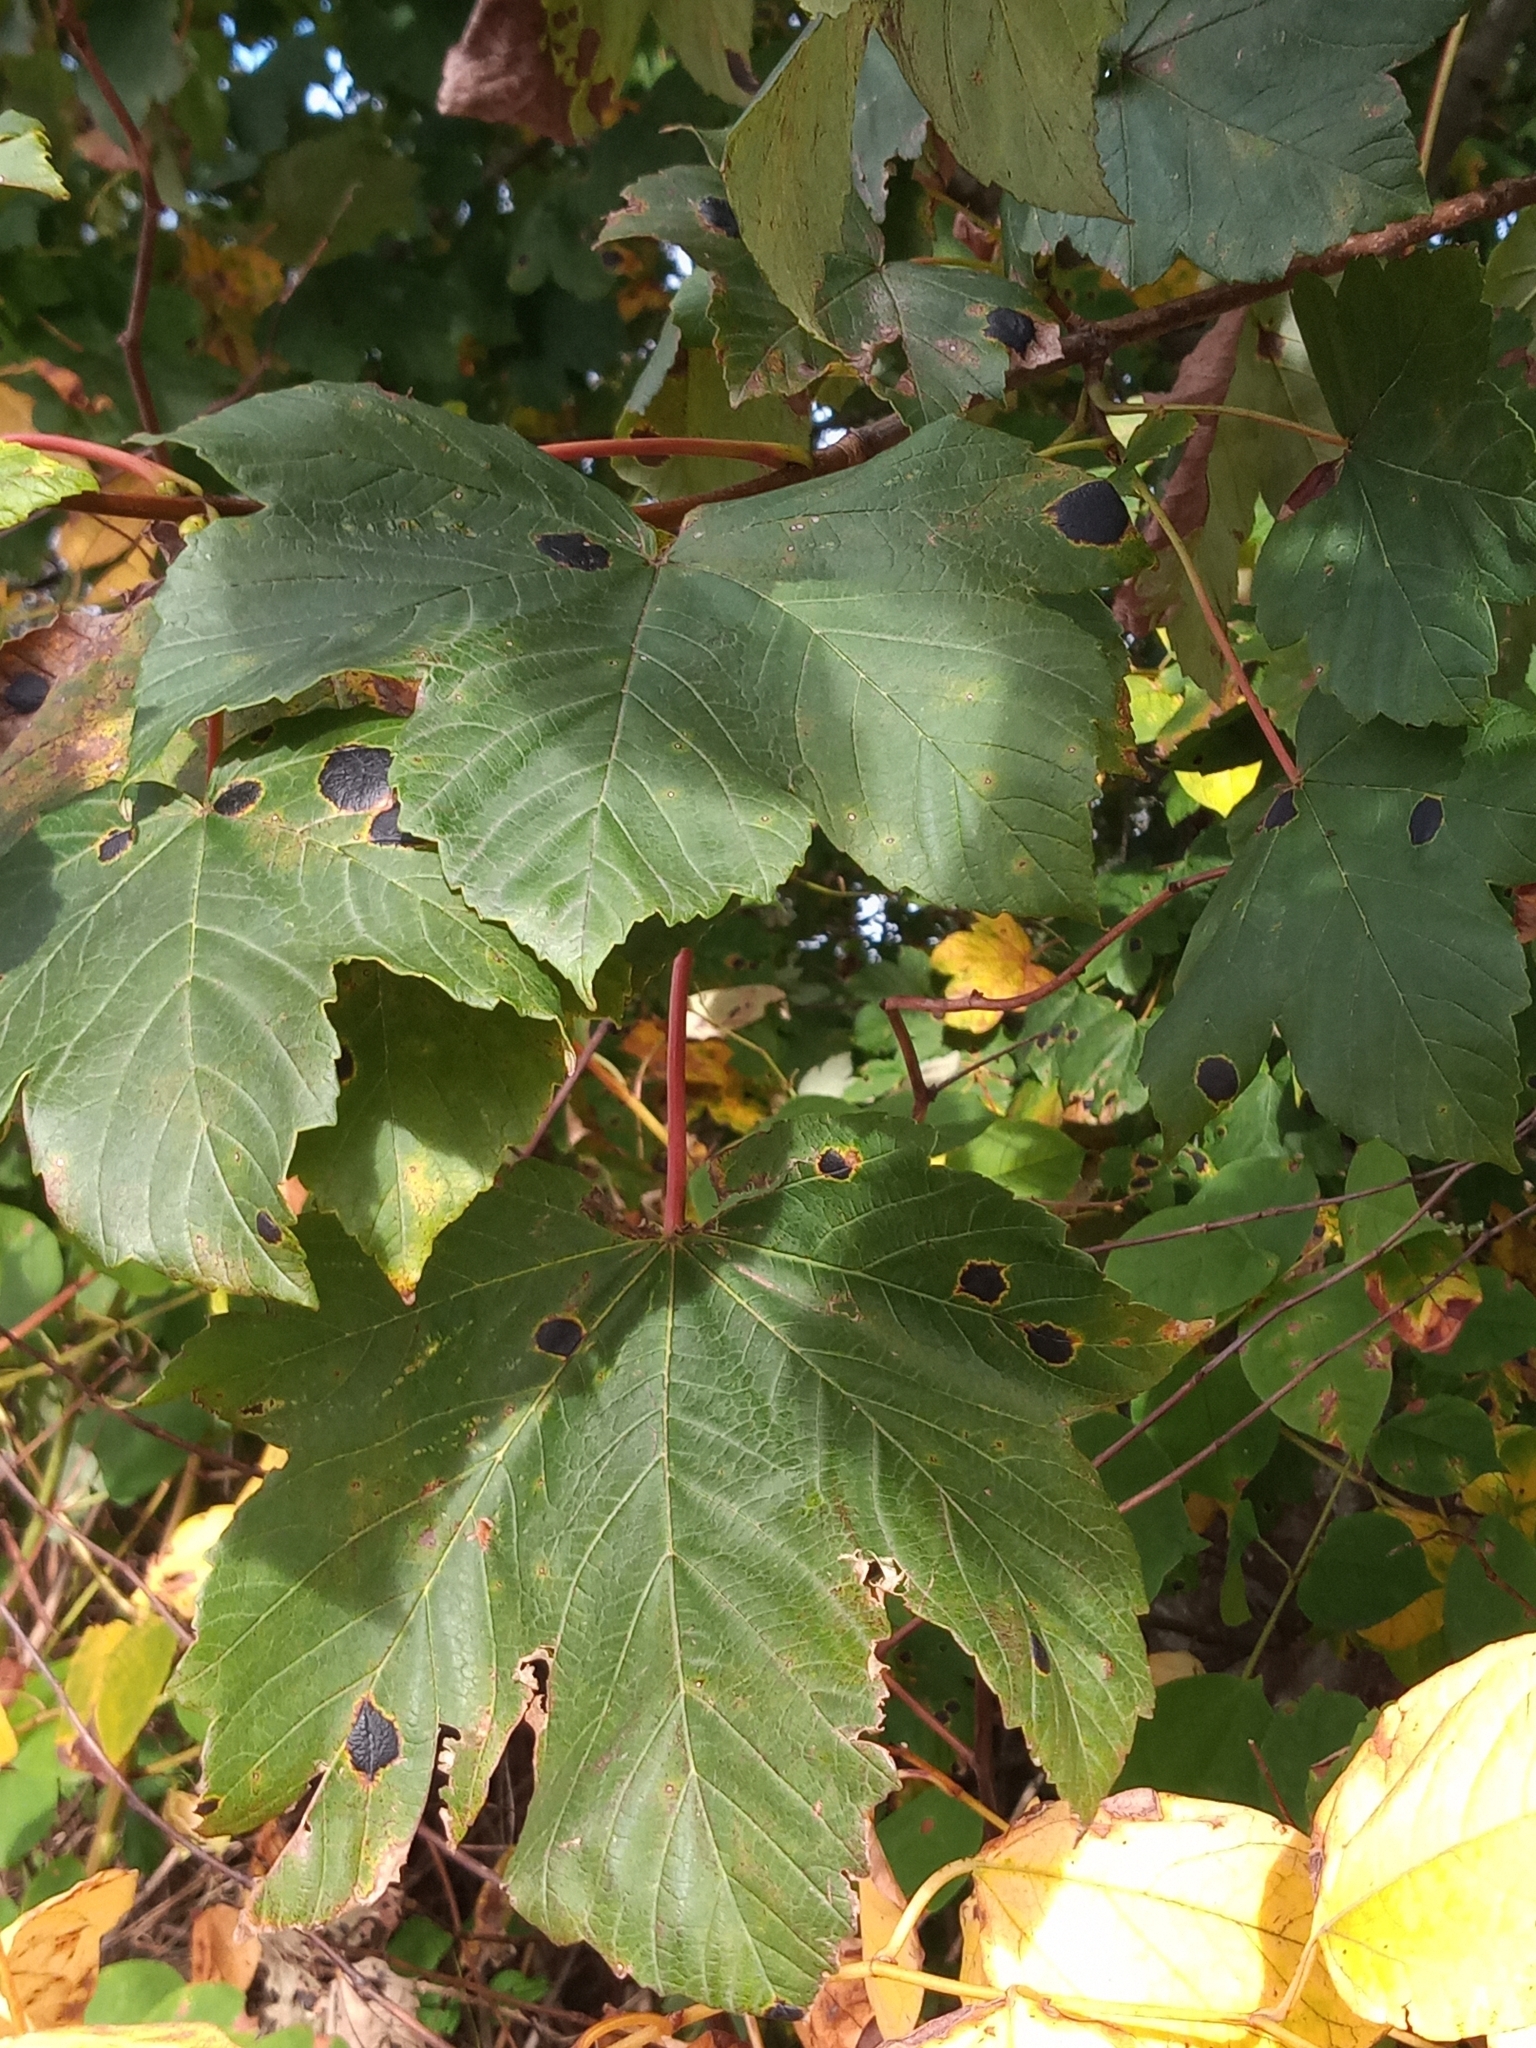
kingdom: Fungi
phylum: Ascomycota
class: Leotiomycetes
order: Rhytismatales
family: Rhytismataceae
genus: Rhytisma
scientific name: Rhytisma acerinum
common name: European tar spot
